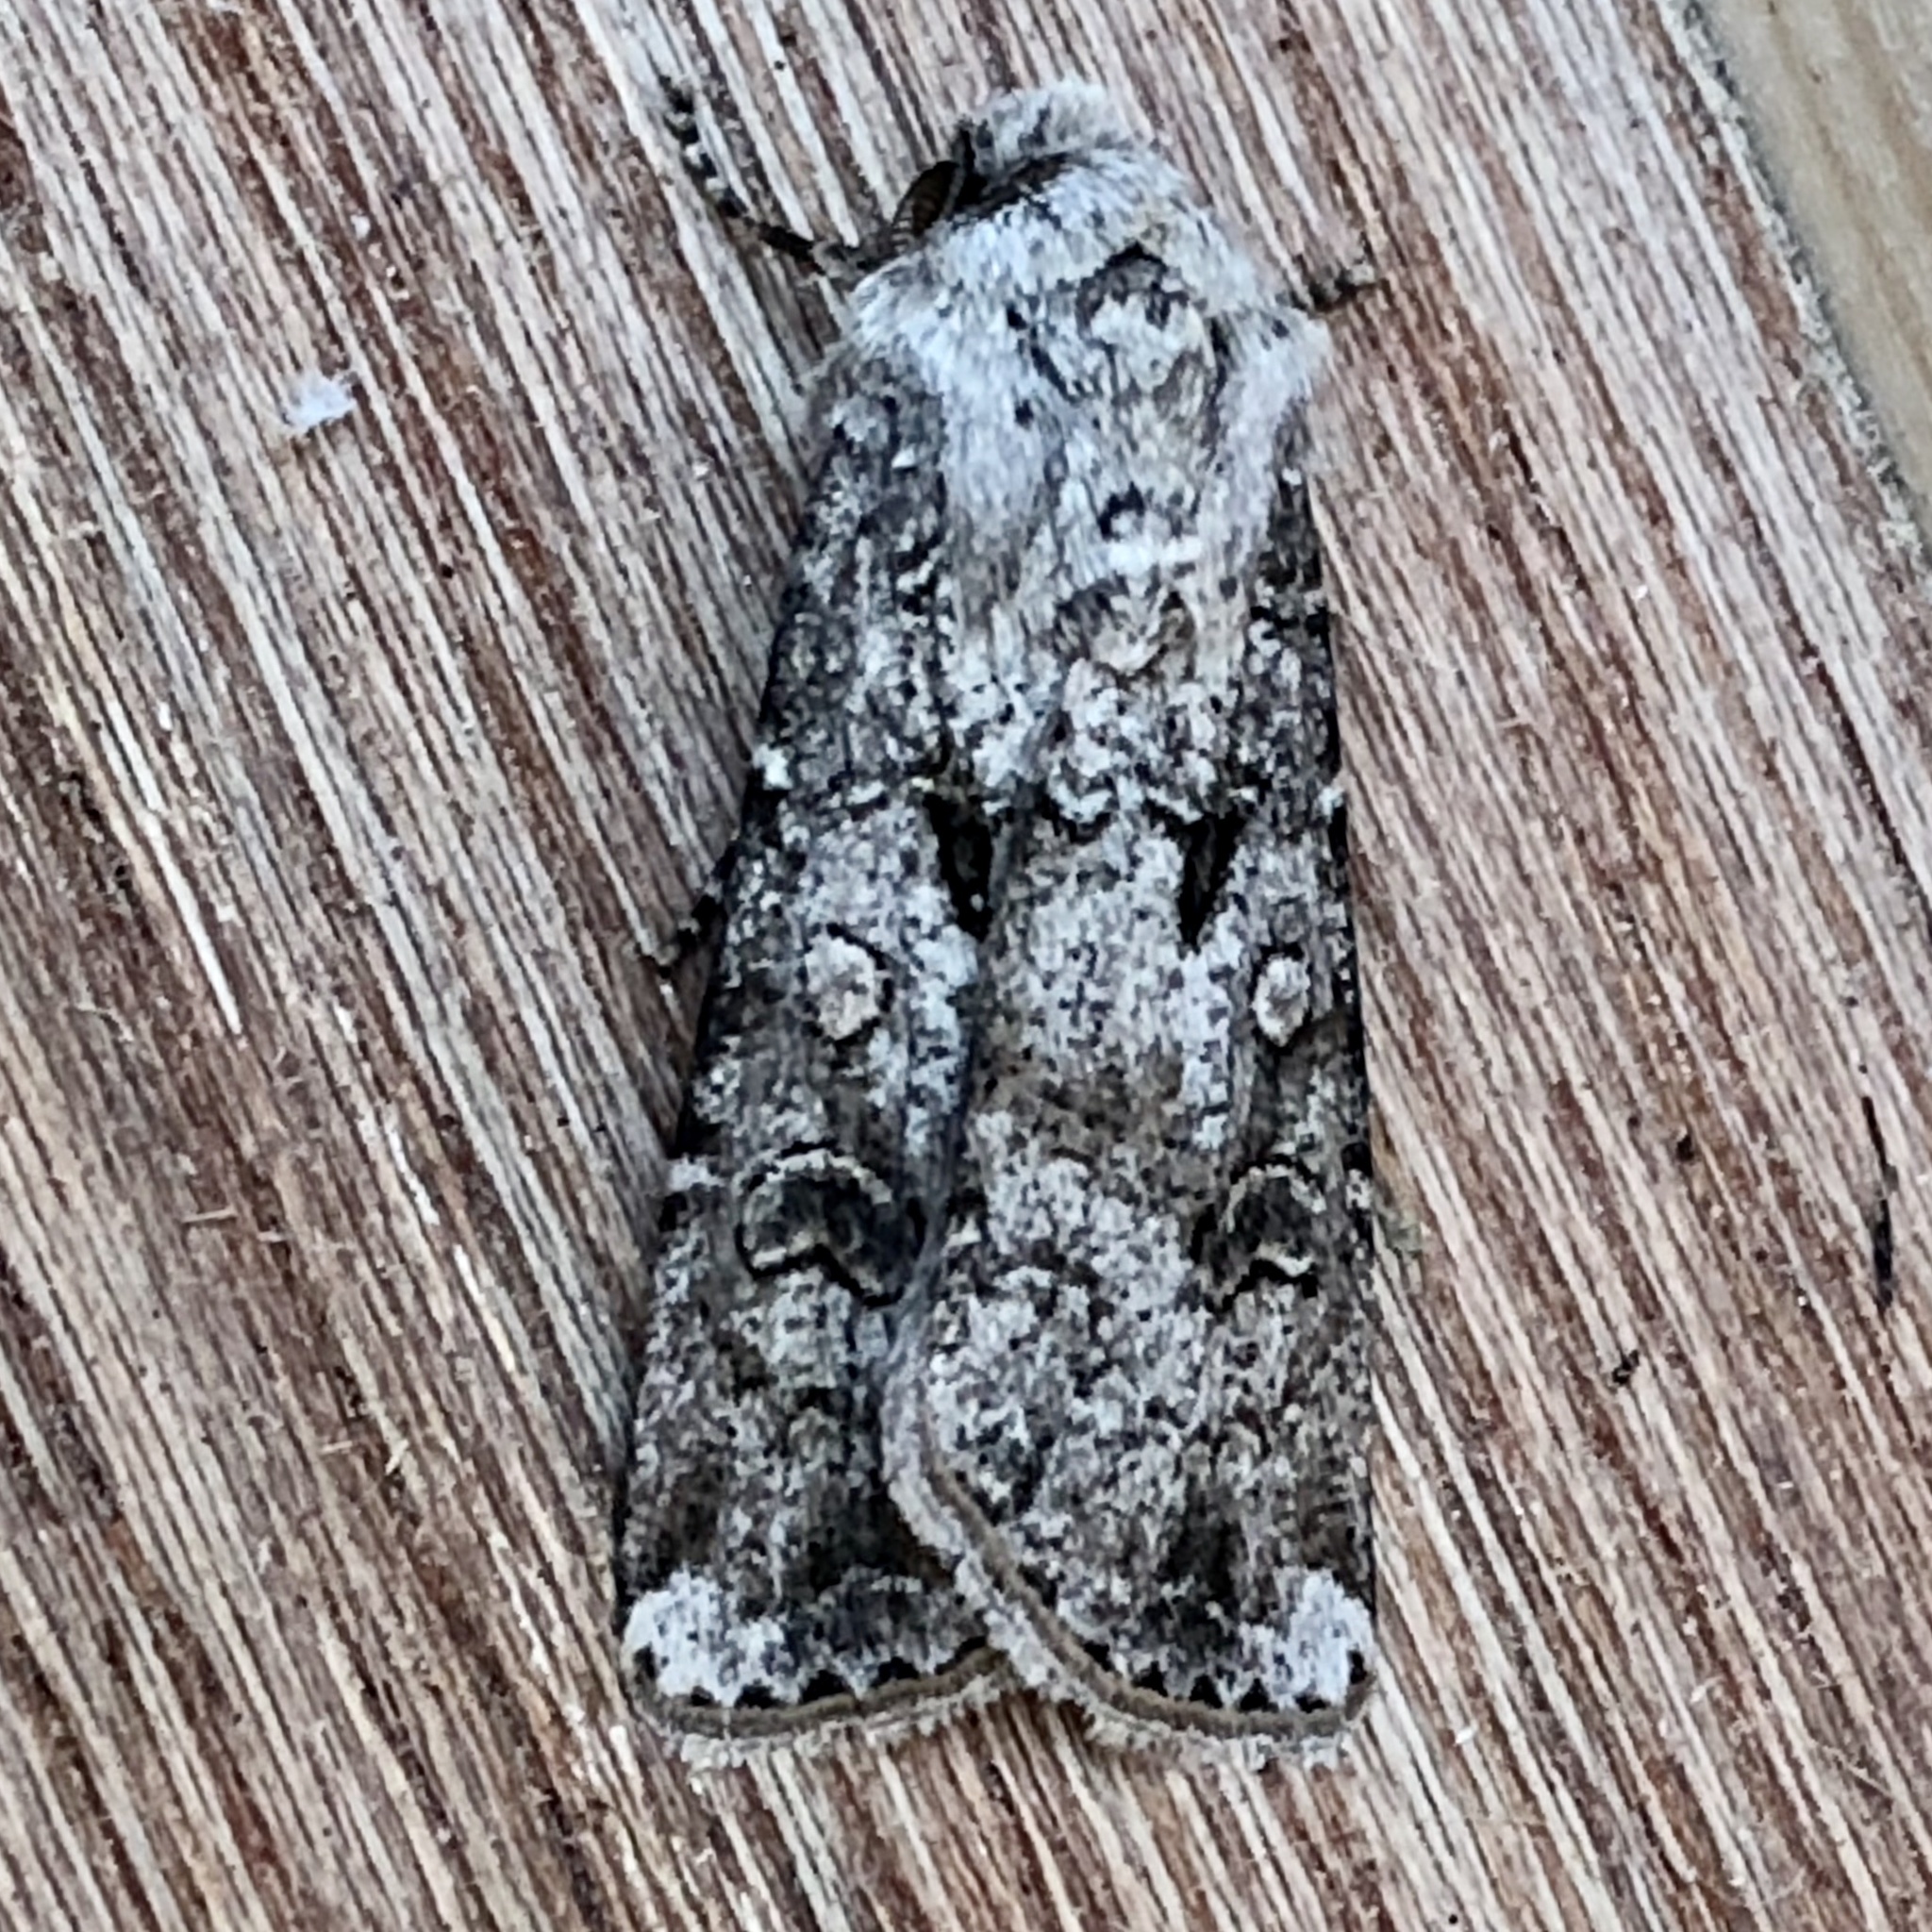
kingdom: Animalia
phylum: Arthropoda
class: Insecta
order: Lepidoptera
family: Noctuidae
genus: Agrotis
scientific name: Agrotis segetum
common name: Turnip moth
